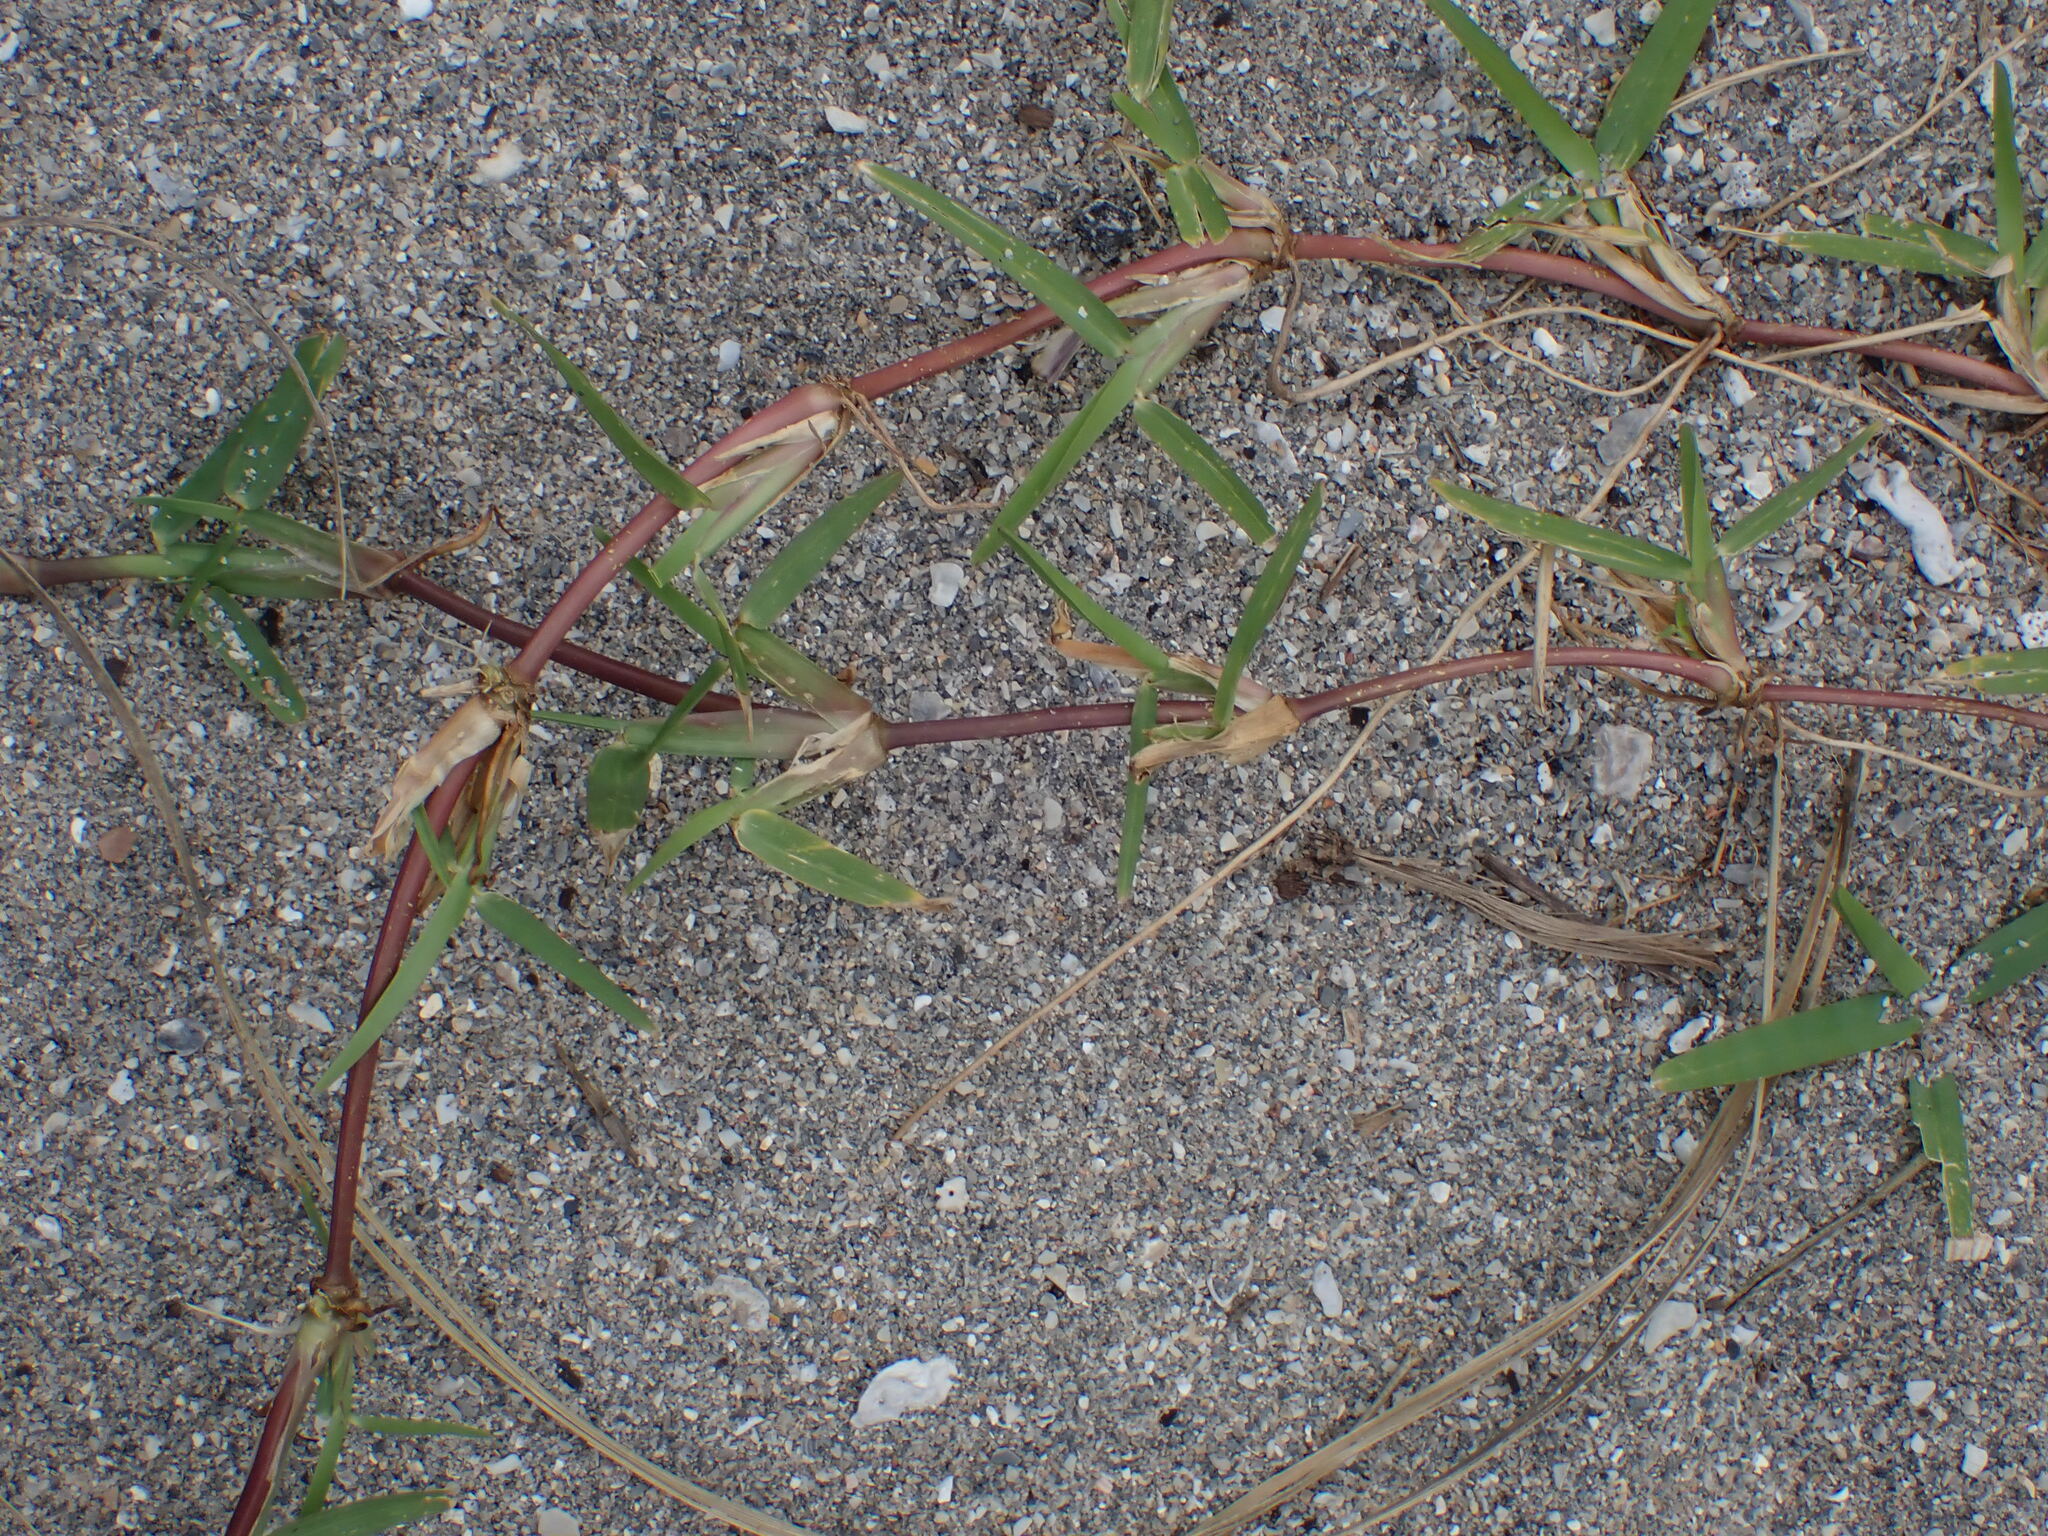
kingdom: Plantae
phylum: Tracheophyta
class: Liliopsida
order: Poales
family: Poaceae
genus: Stenotaphrum
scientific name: Stenotaphrum secundatum
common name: St. augustine grass
